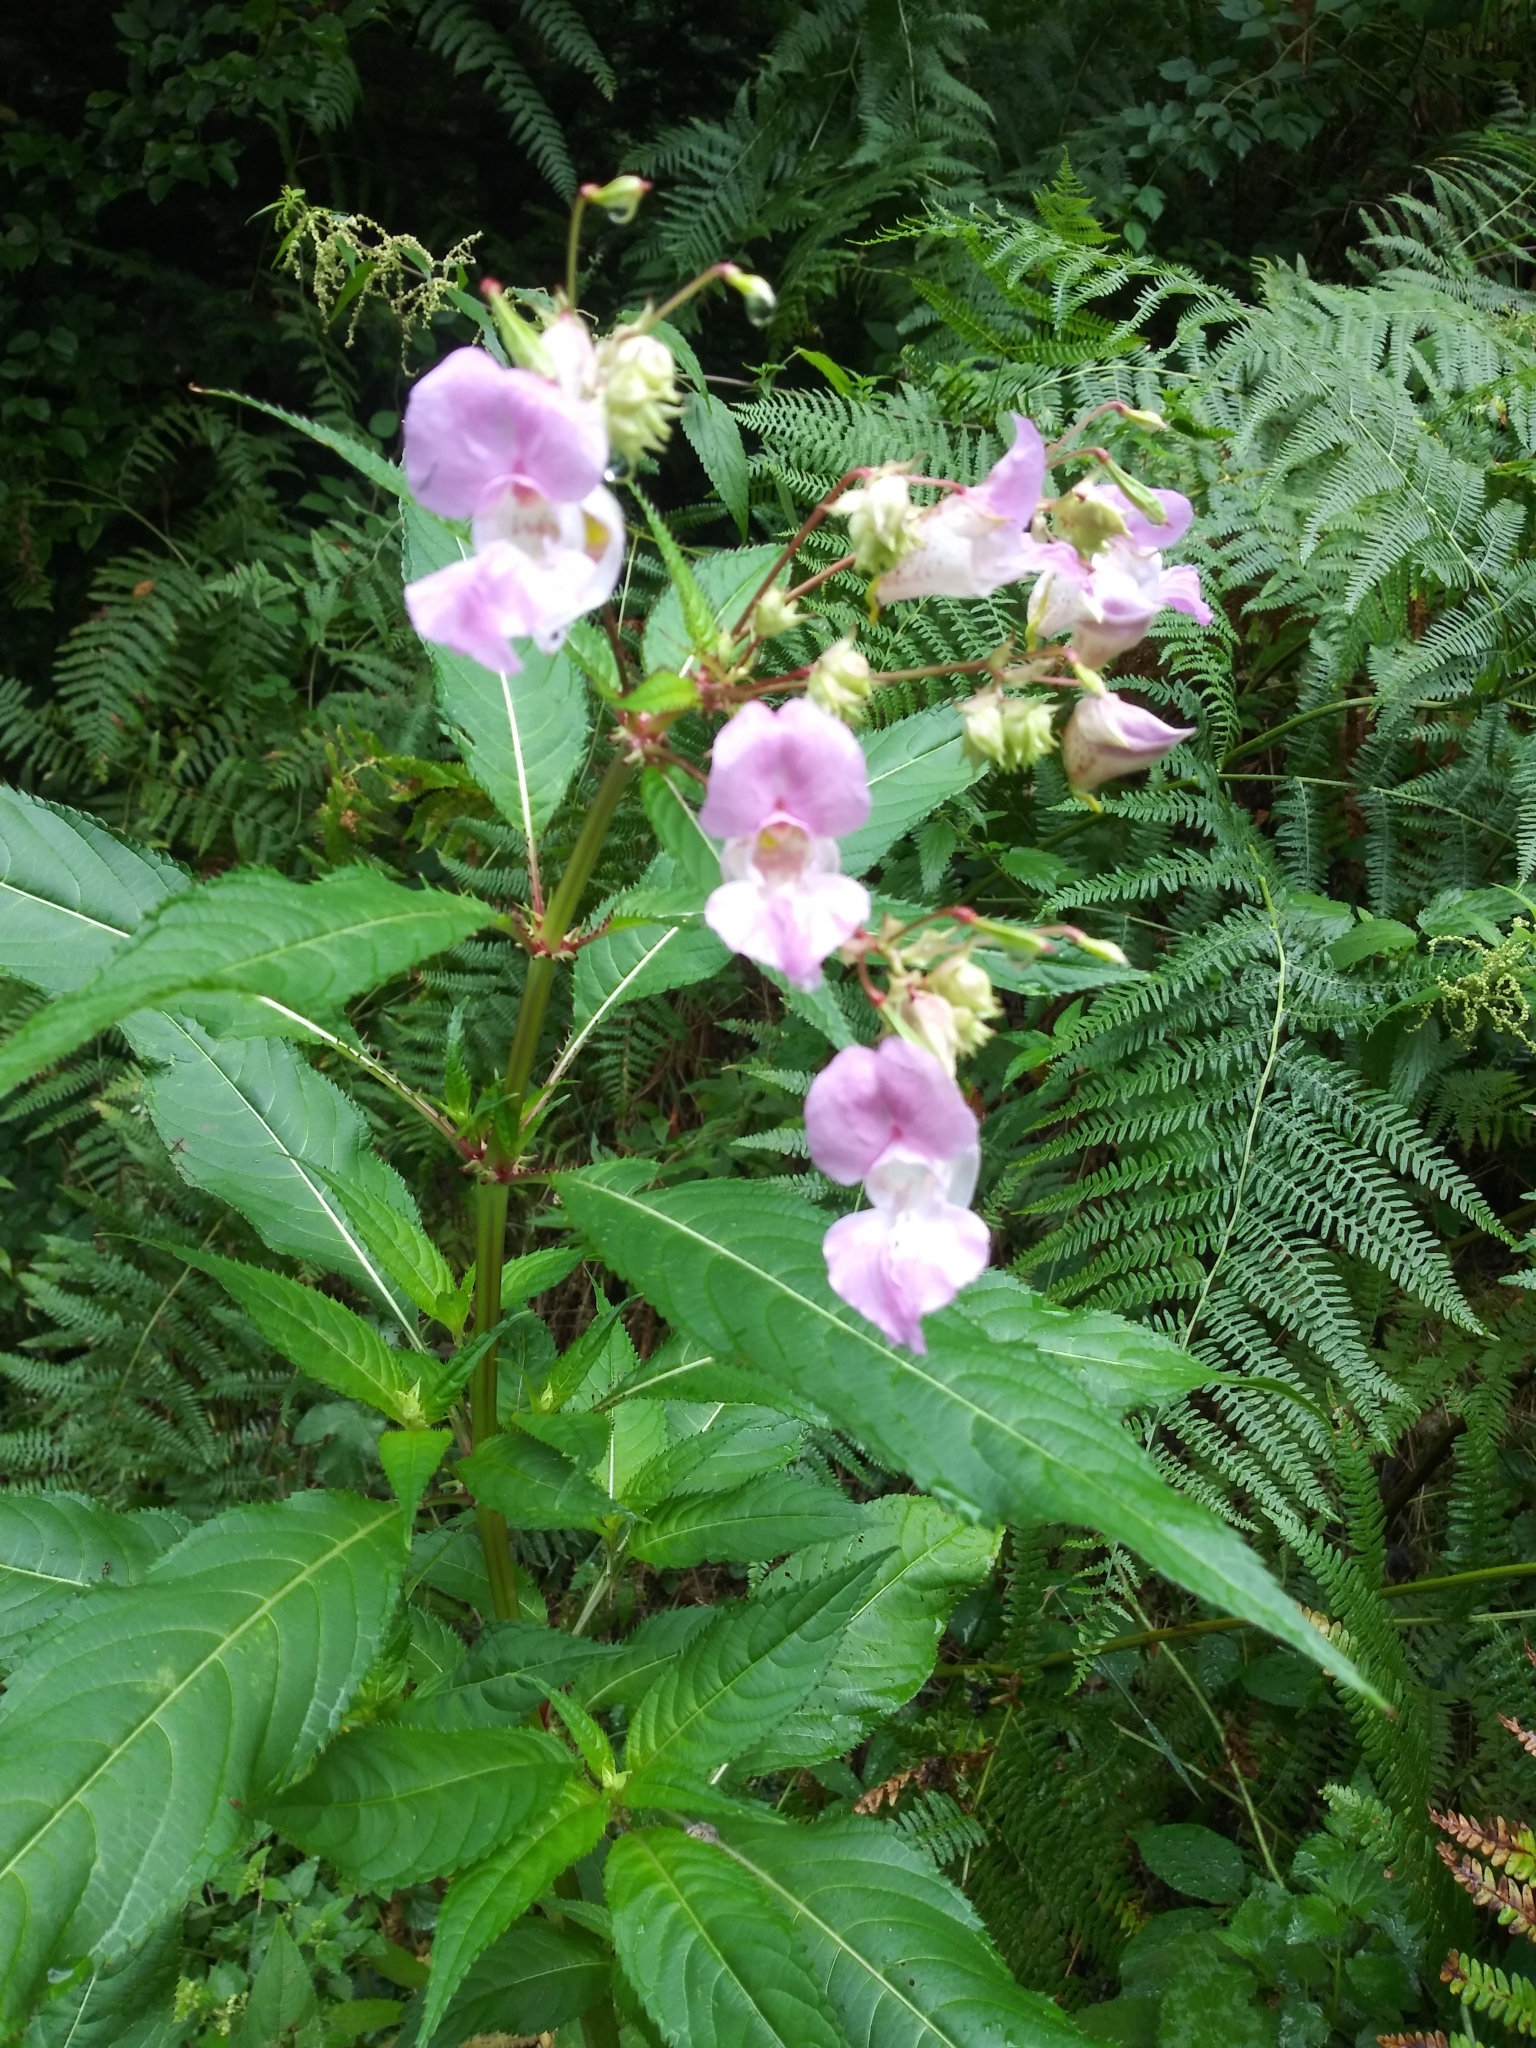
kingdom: Plantae
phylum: Tracheophyta
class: Magnoliopsida
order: Ericales
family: Balsaminaceae
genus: Impatiens
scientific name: Impatiens glandulifera
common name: Himalayan balsam
